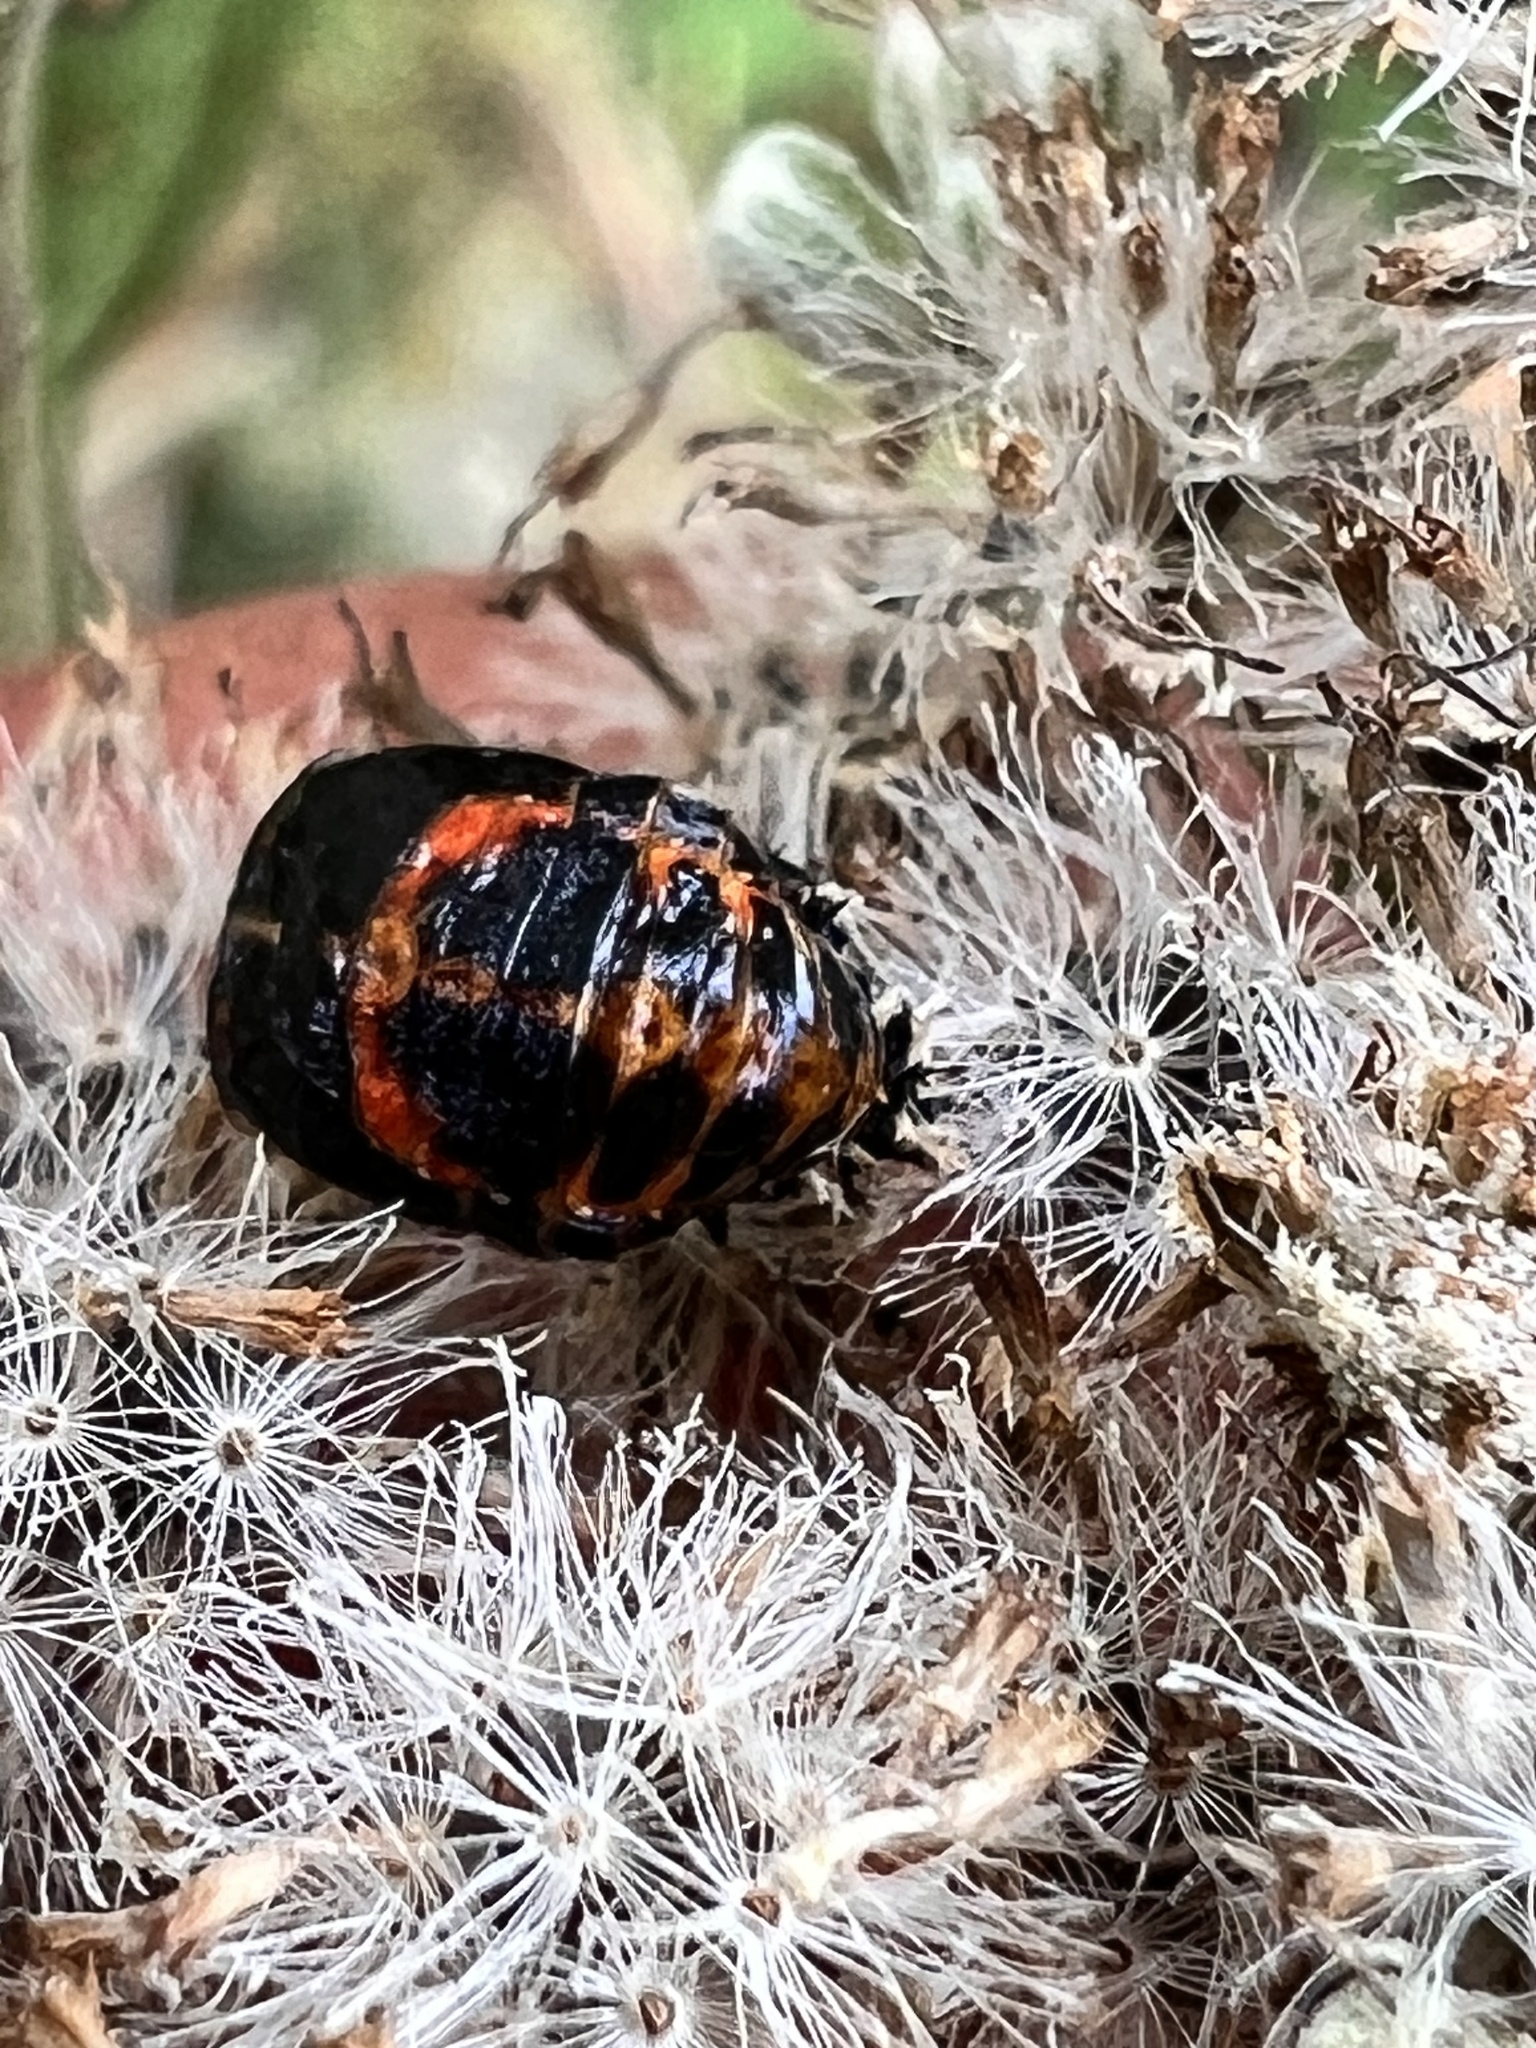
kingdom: Animalia
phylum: Arthropoda
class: Insecta
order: Coleoptera
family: Coccinellidae
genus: Harmonia
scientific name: Harmonia axyridis
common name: Harlequin ladybird
